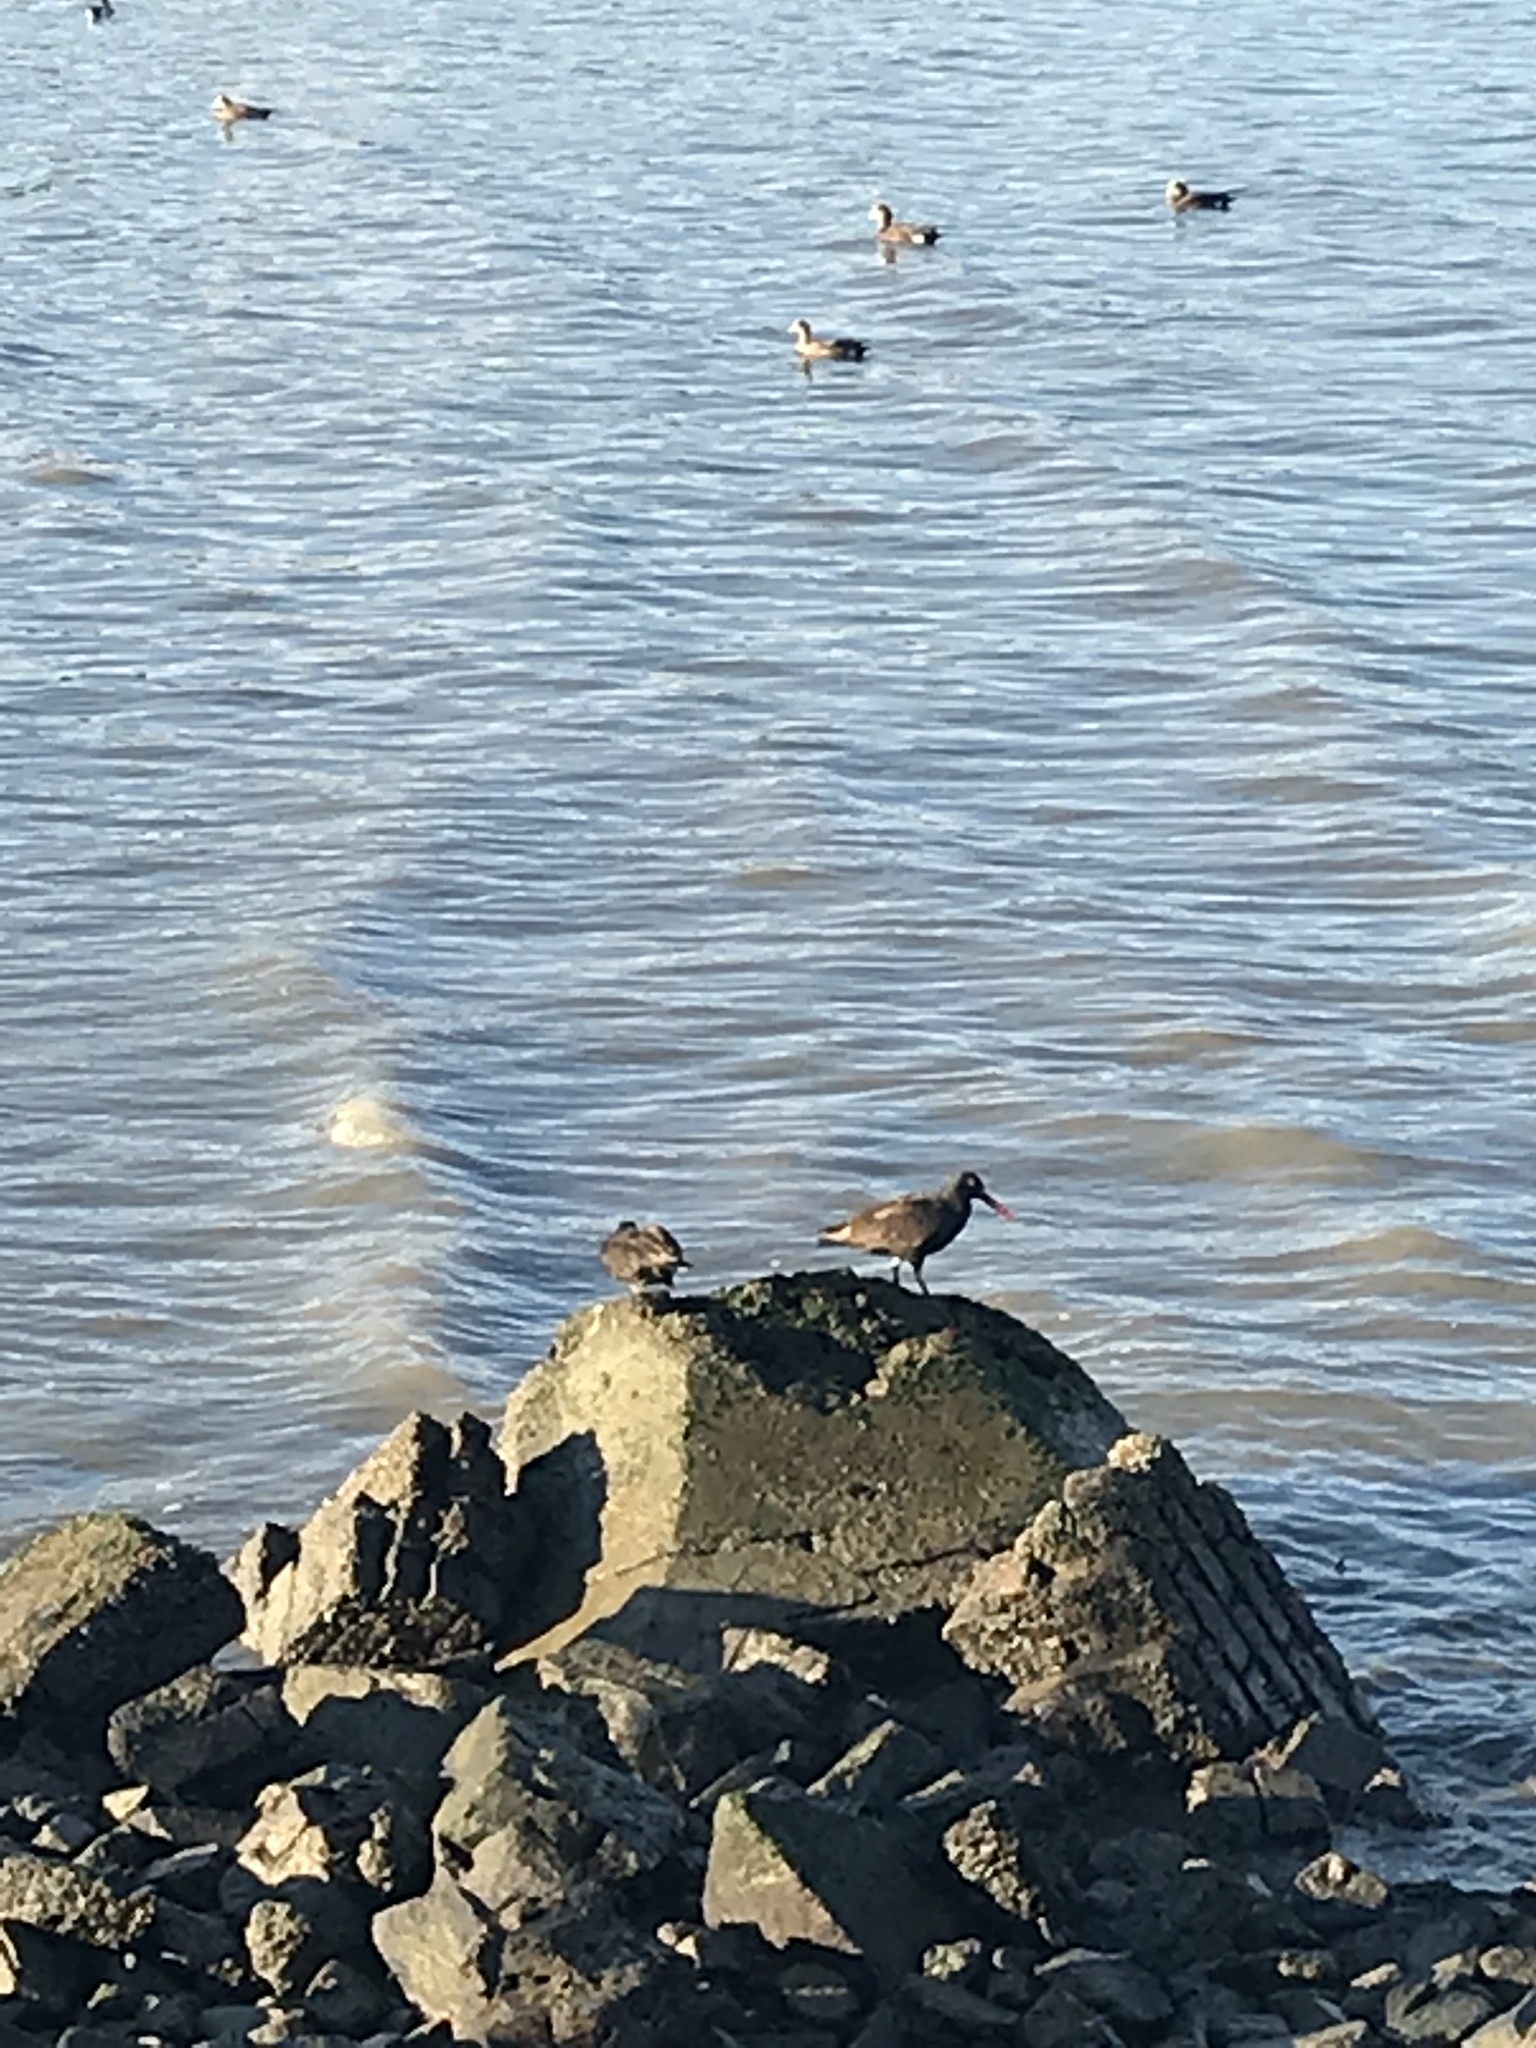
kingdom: Animalia
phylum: Chordata
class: Aves
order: Charadriiformes
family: Haematopodidae
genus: Haematopus
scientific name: Haematopus bachmani
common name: Black oystercatcher
